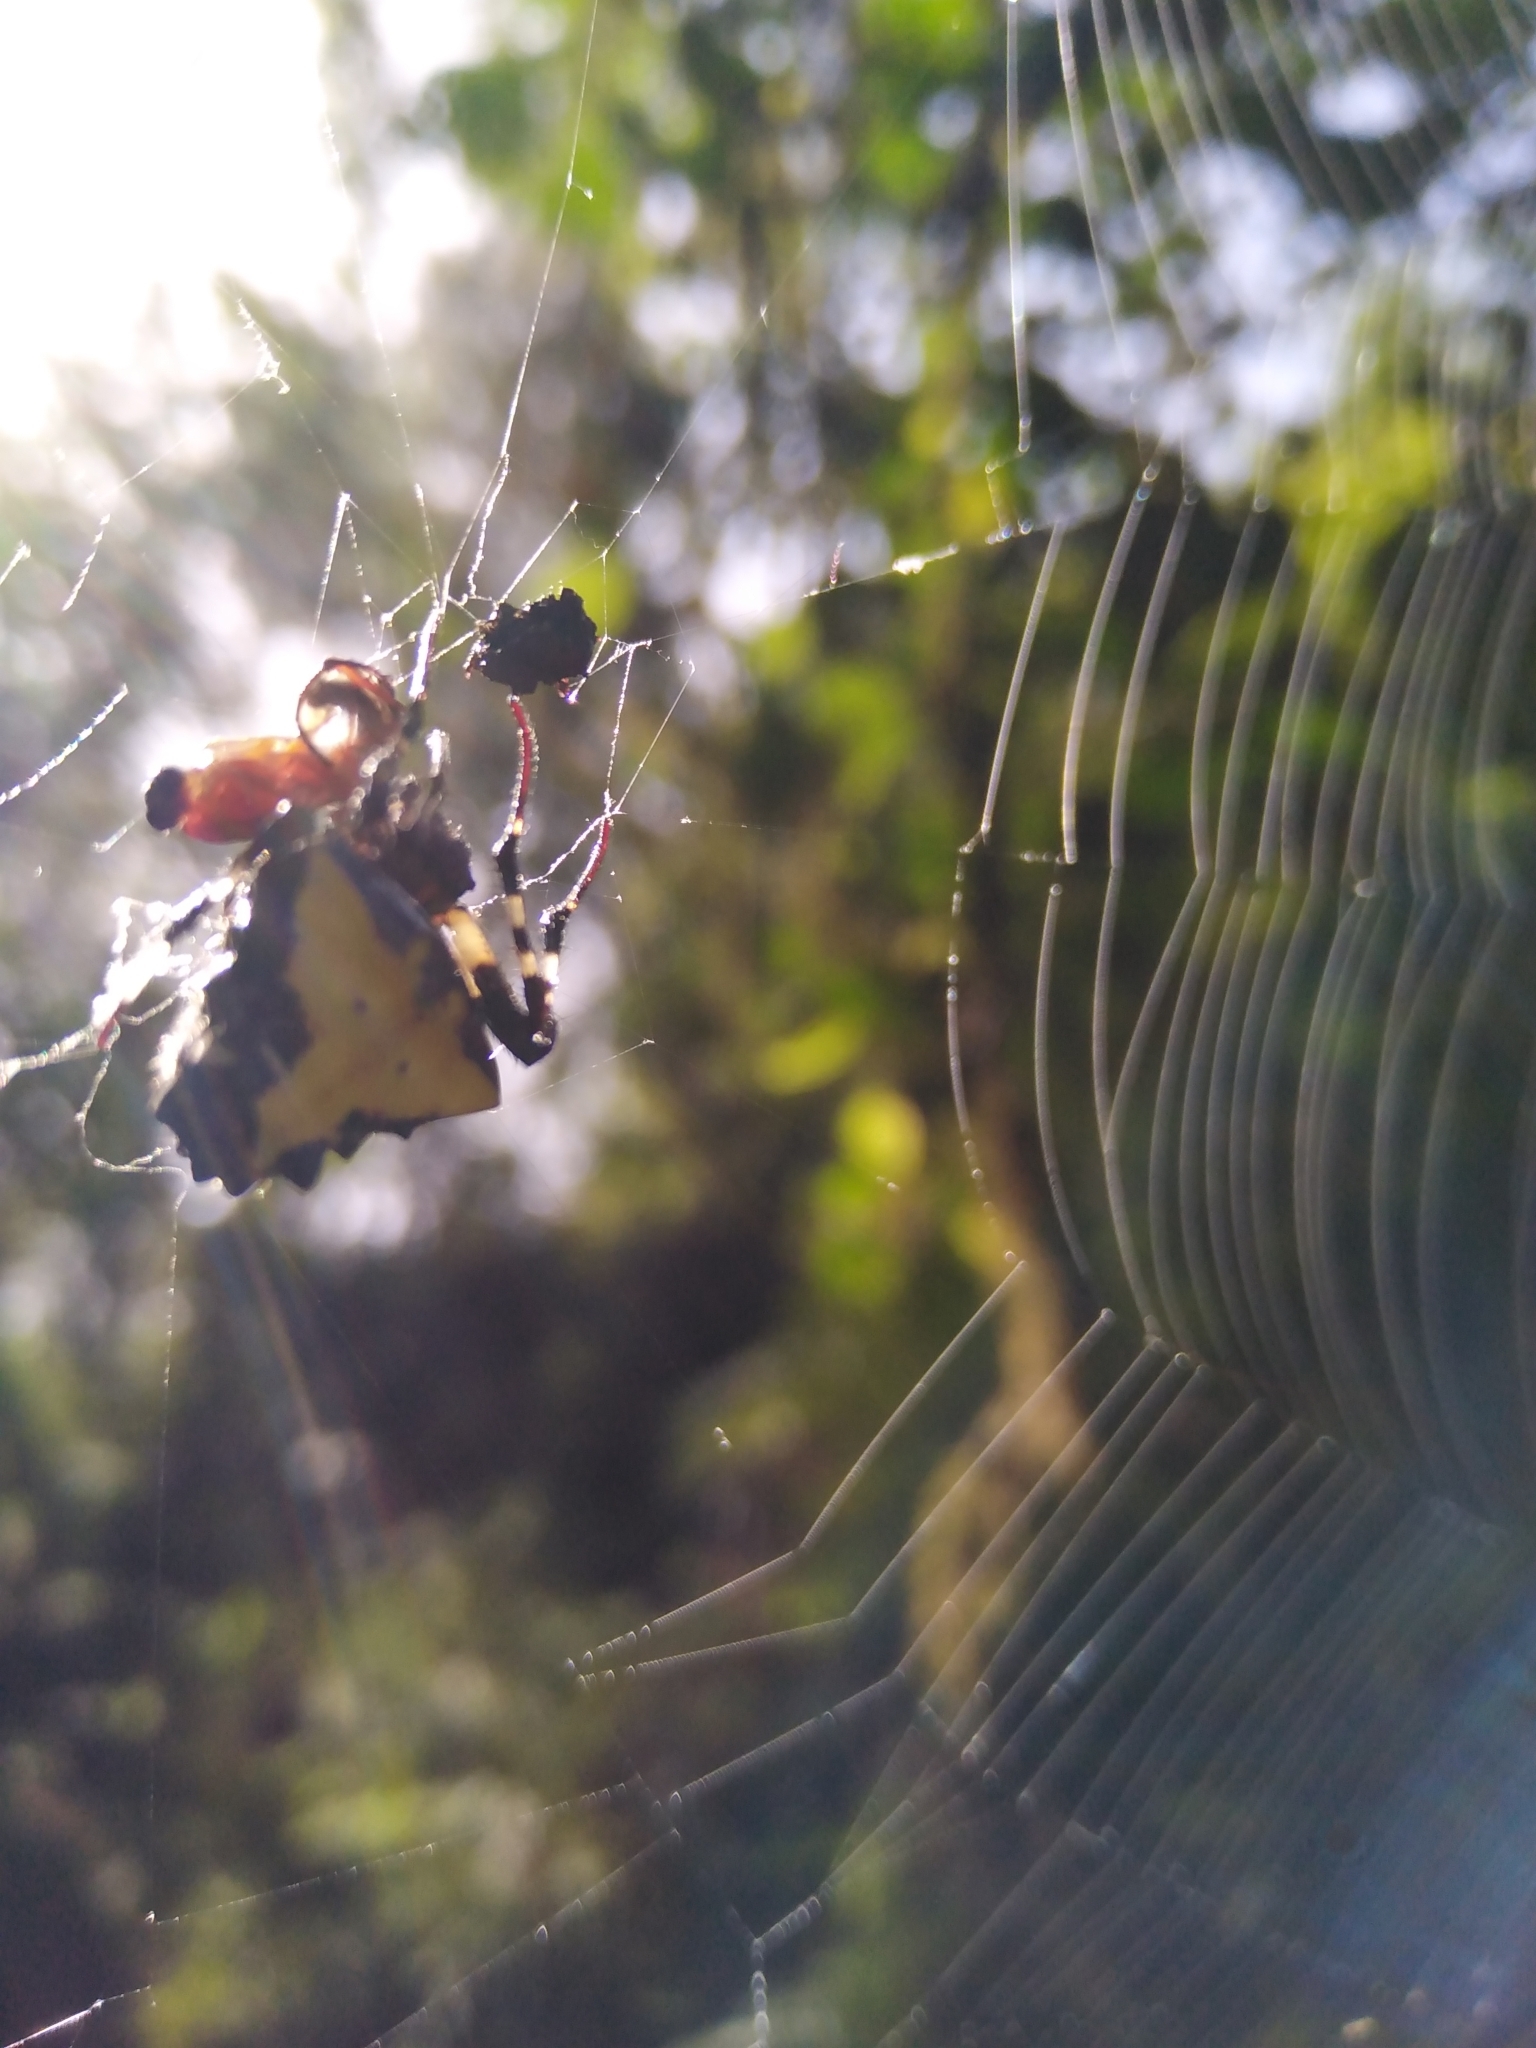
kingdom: Animalia
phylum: Arthropoda
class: Arachnida
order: Araneae
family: Araneidae
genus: Verrucosa
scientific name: Verrucosa arenata
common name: Orb weavers
